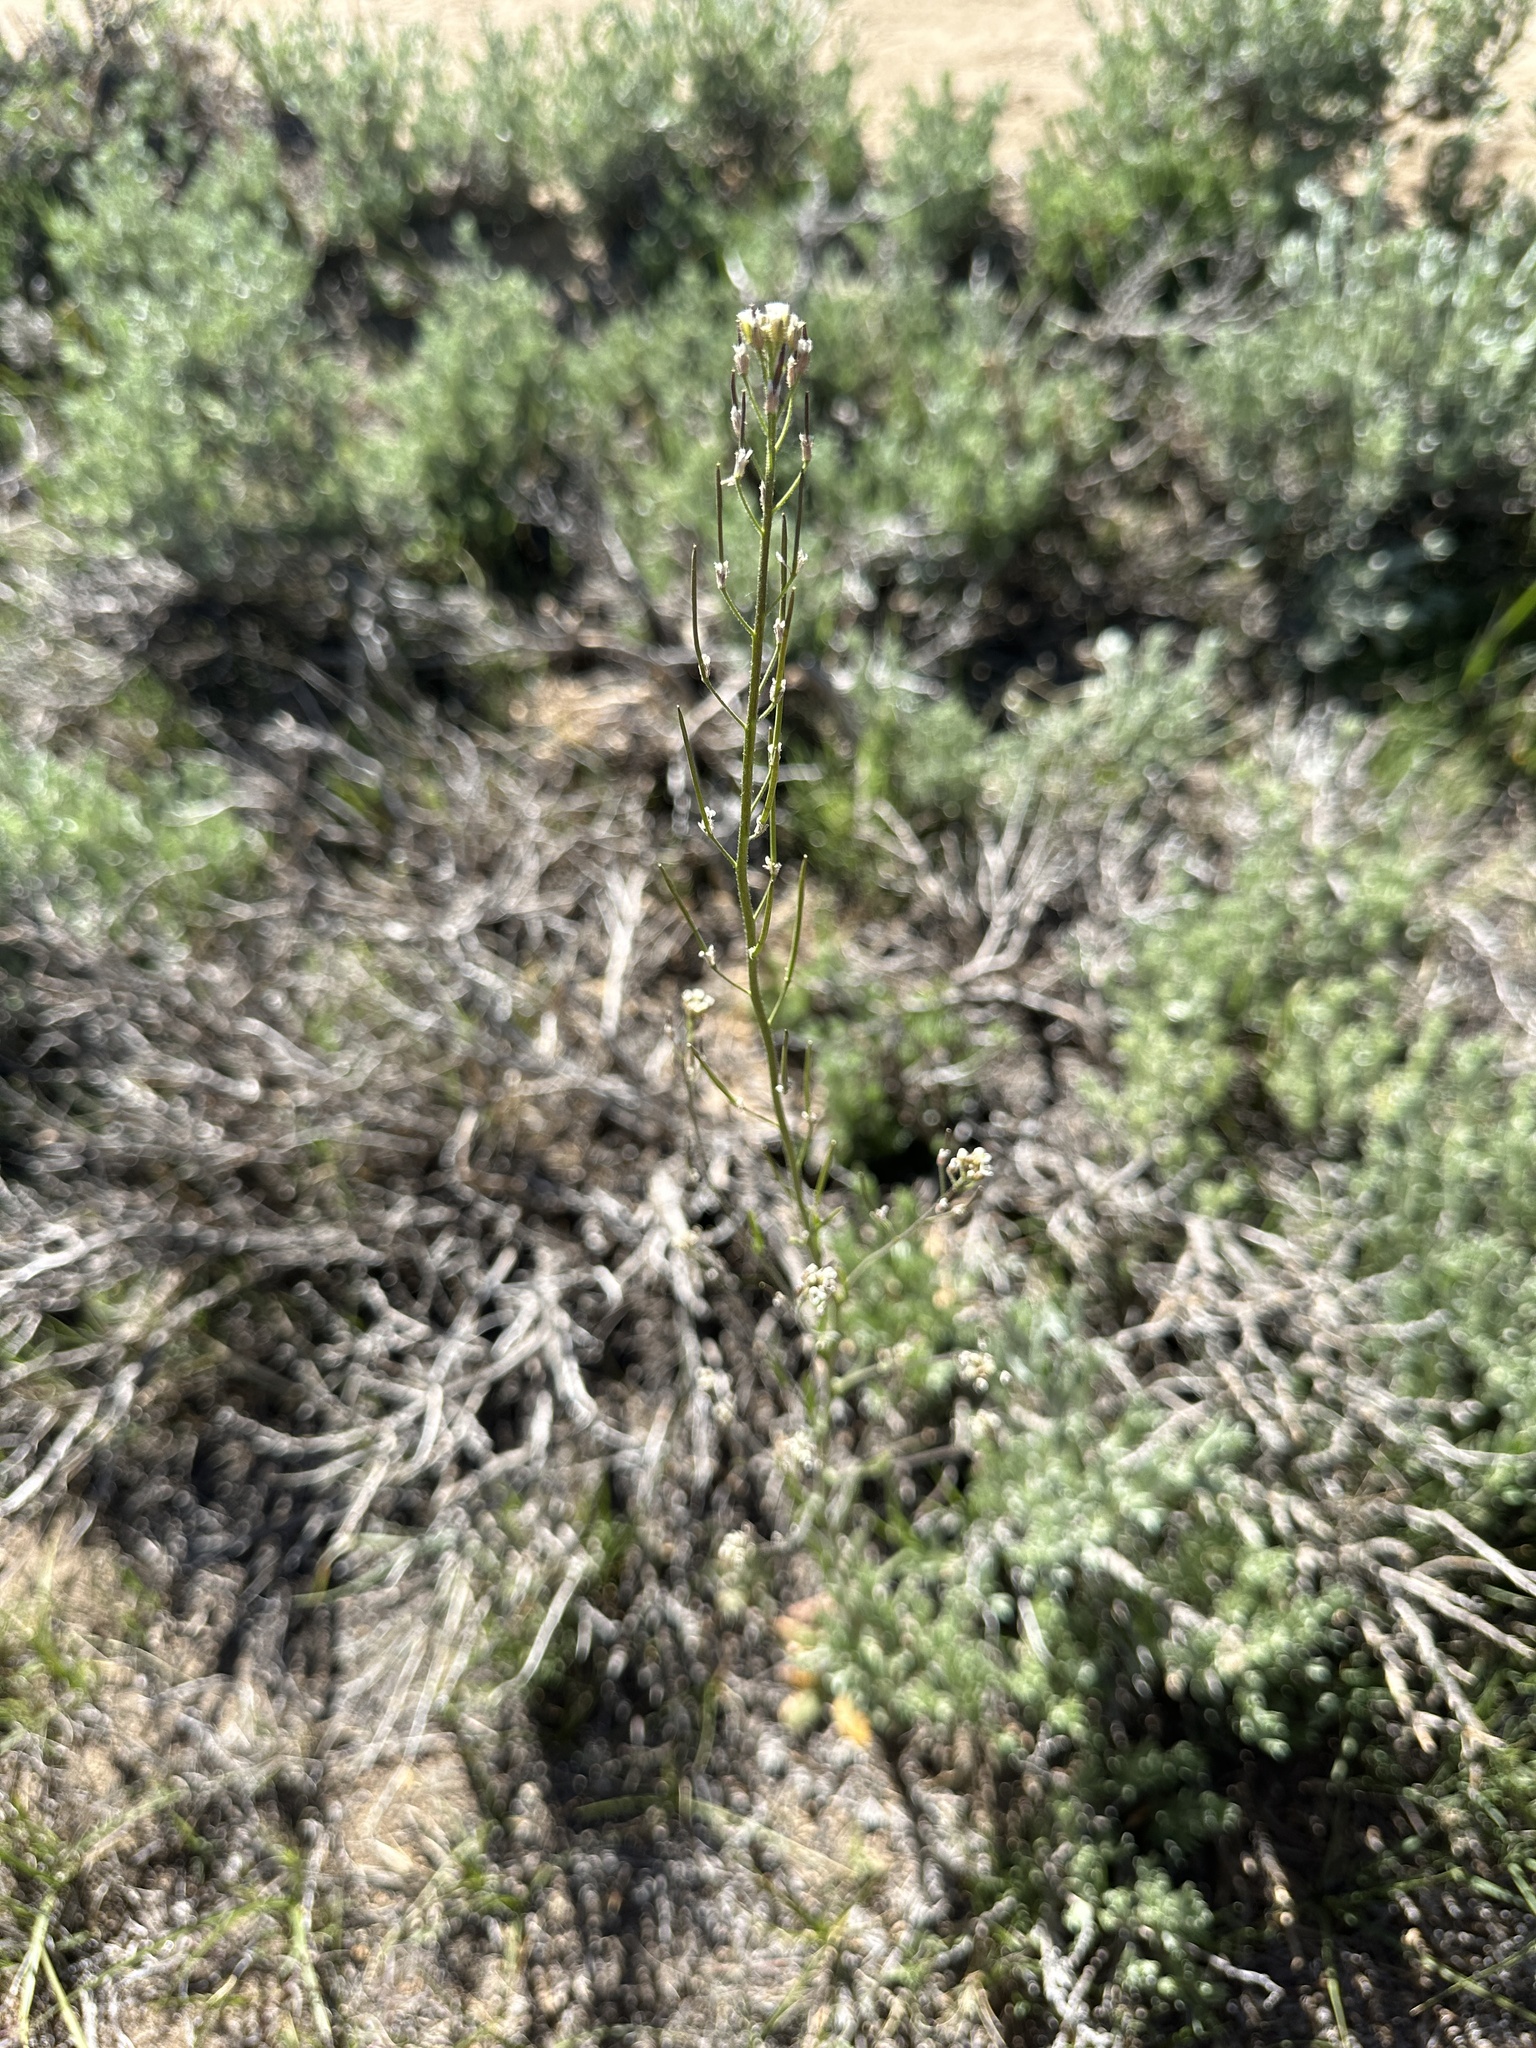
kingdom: Plantae
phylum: Tracheophyta
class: Magnoliopsida
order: Brassicales
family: Brassicaceae
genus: Crucihimalaya
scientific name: Crucihimalaya virgata
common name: Rod halimolobos
